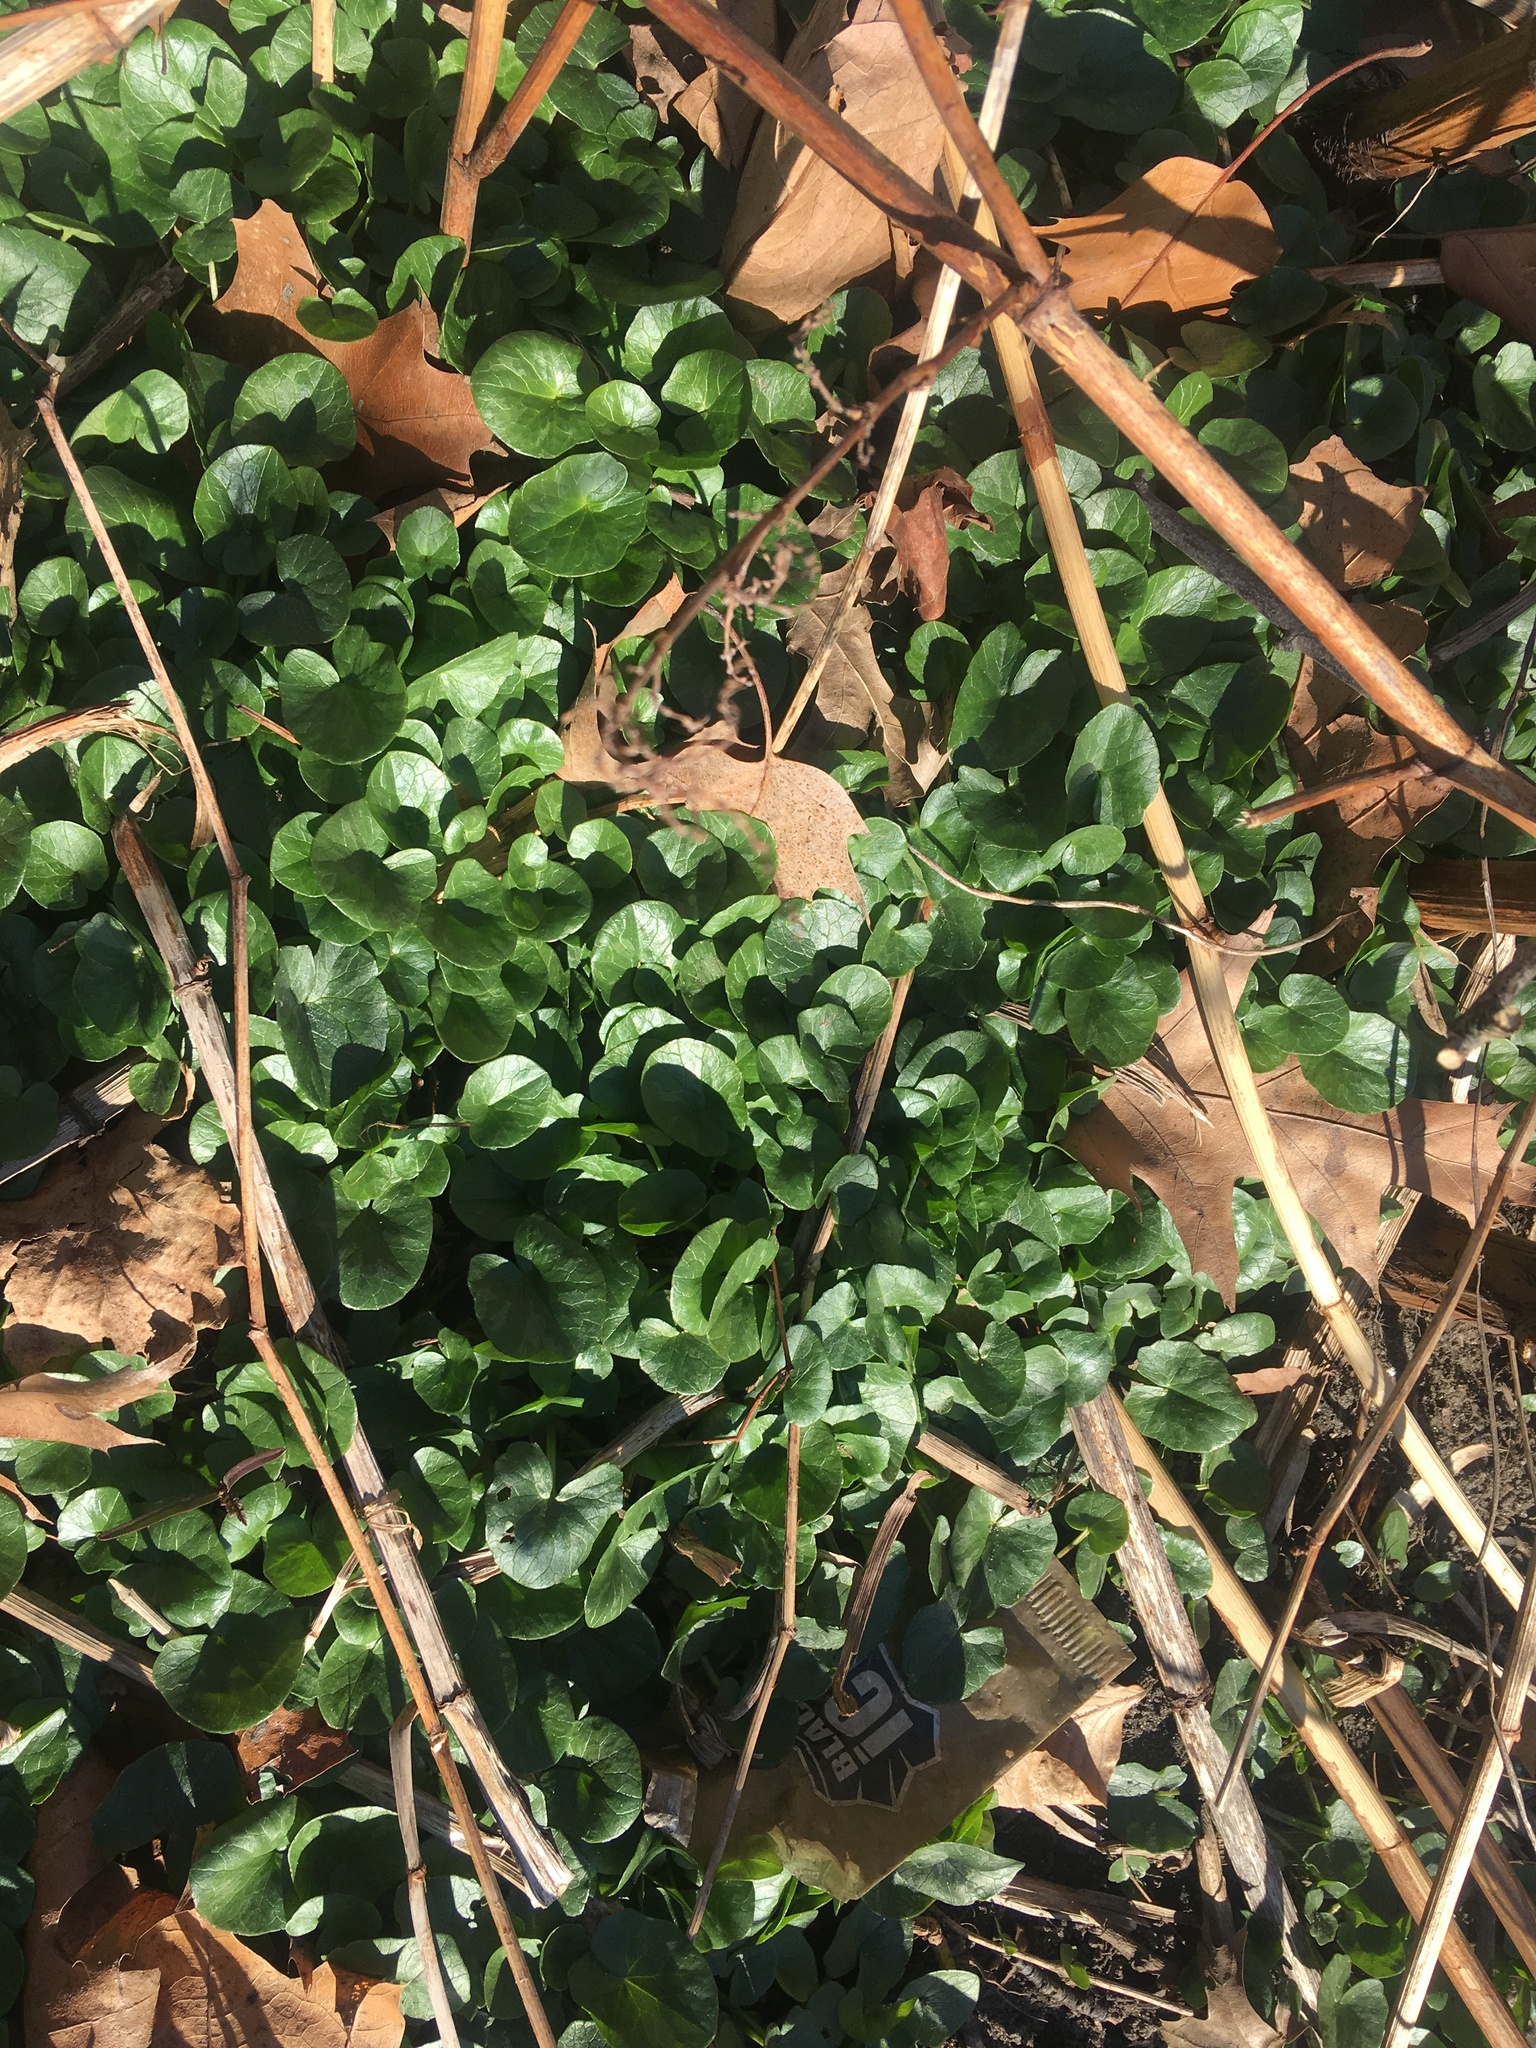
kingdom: Plantae
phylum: Tracheophyta
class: Magnoliopsida
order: Ranunculales
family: Ranunculaceae
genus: Ficaria
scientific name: Ficaria verna
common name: Lesser celandine
